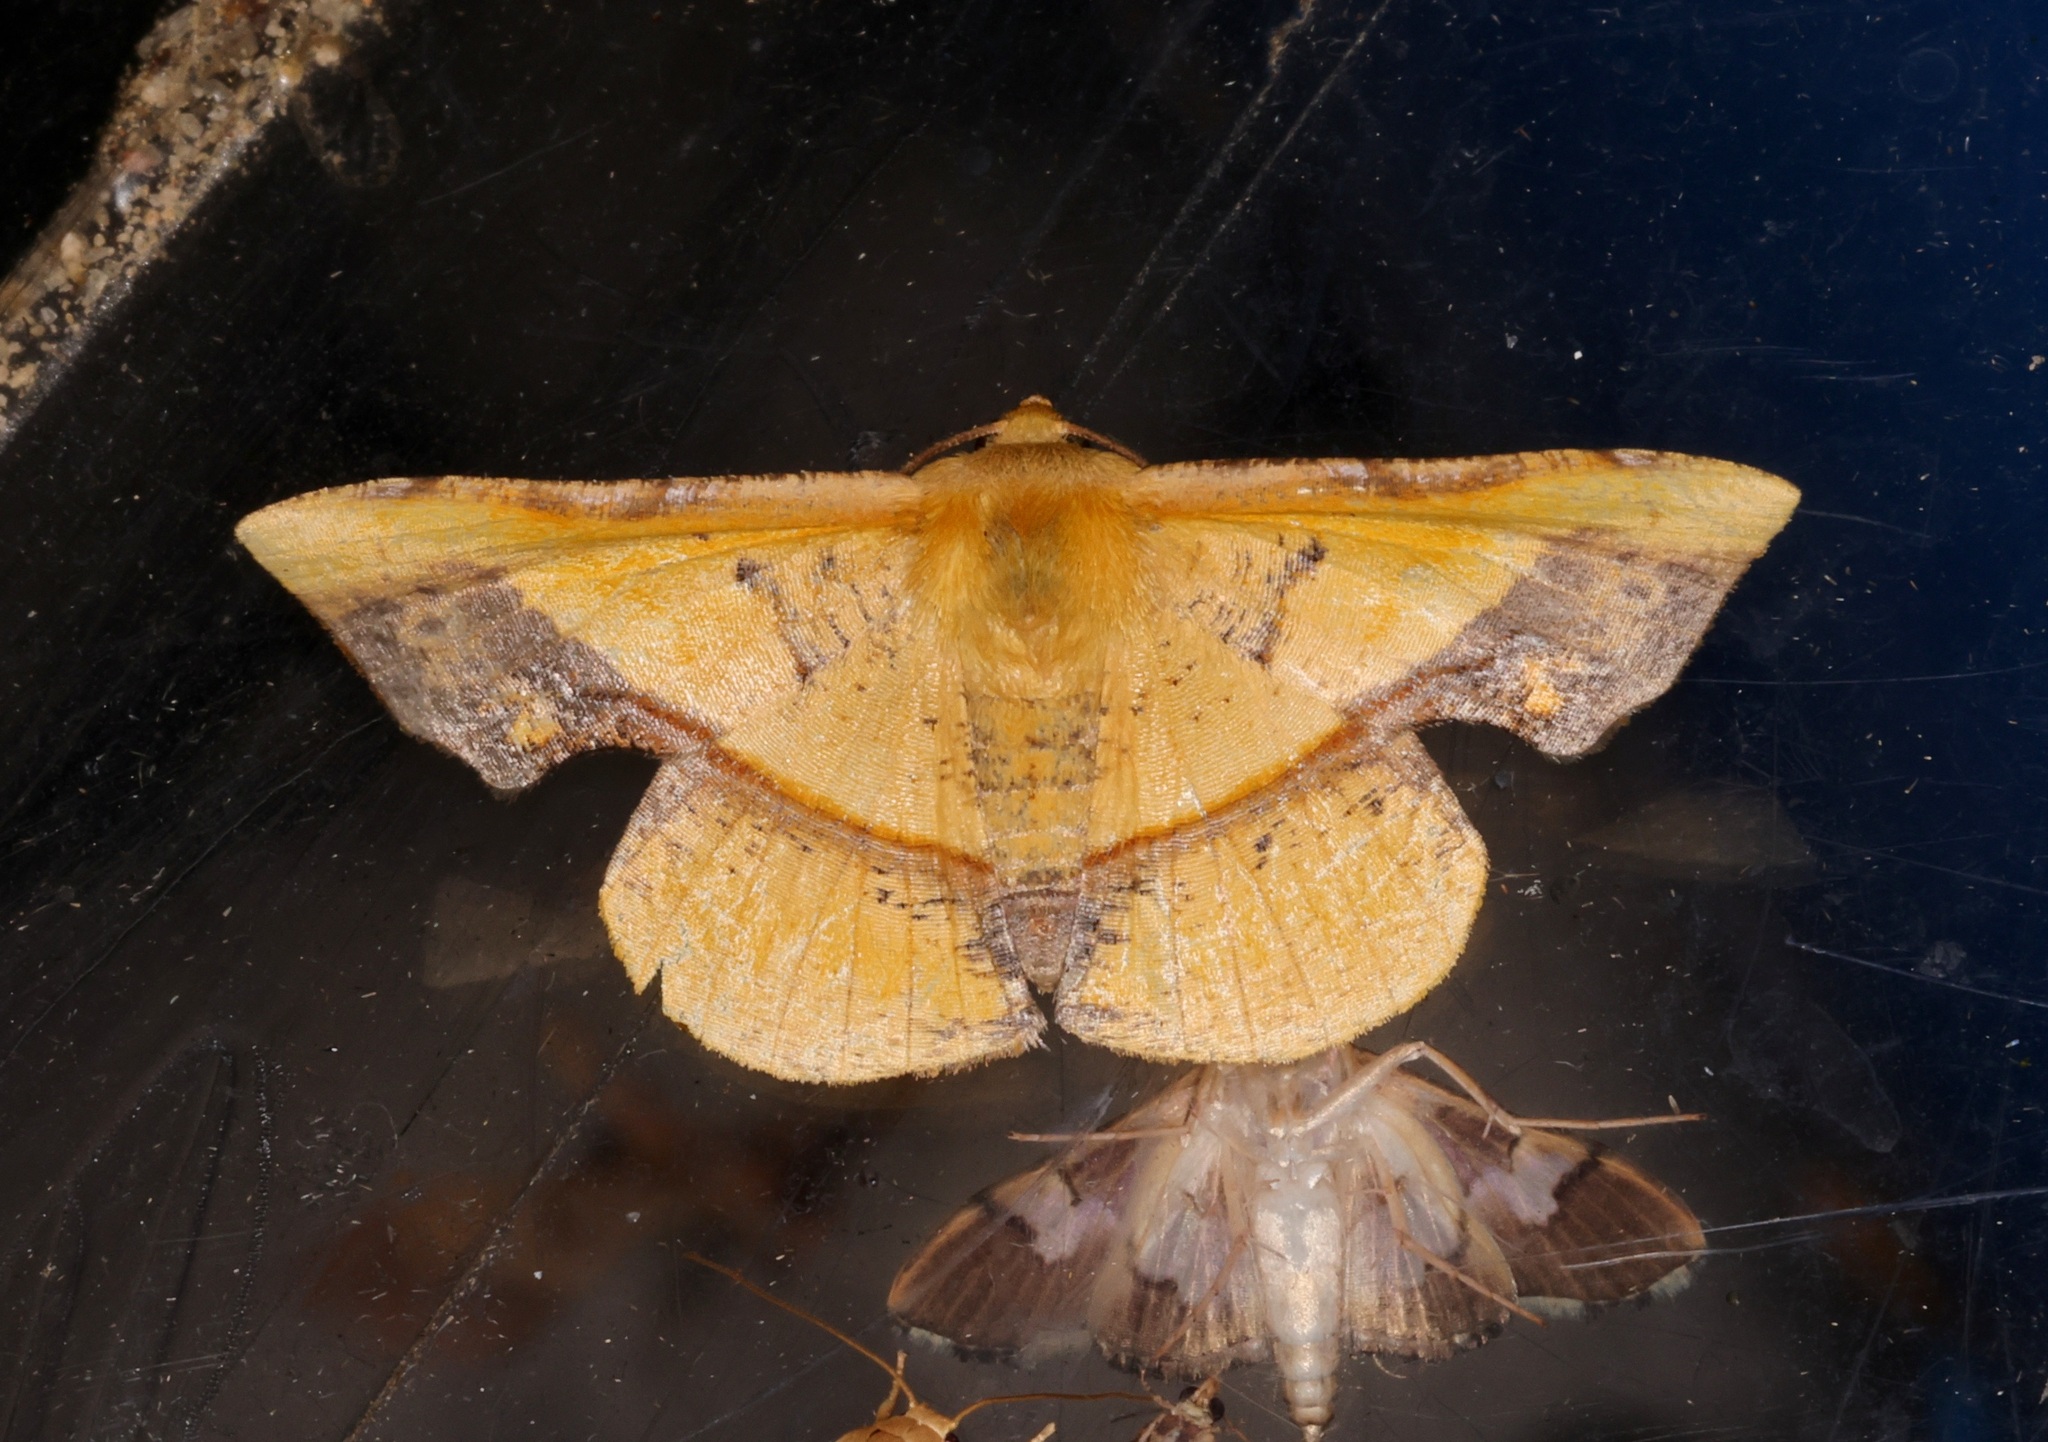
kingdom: Animalia
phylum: Arthropoda
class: Insecta
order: Lepidoptera
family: Geometridae
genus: Fascellina
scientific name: Fascellina plagiata
